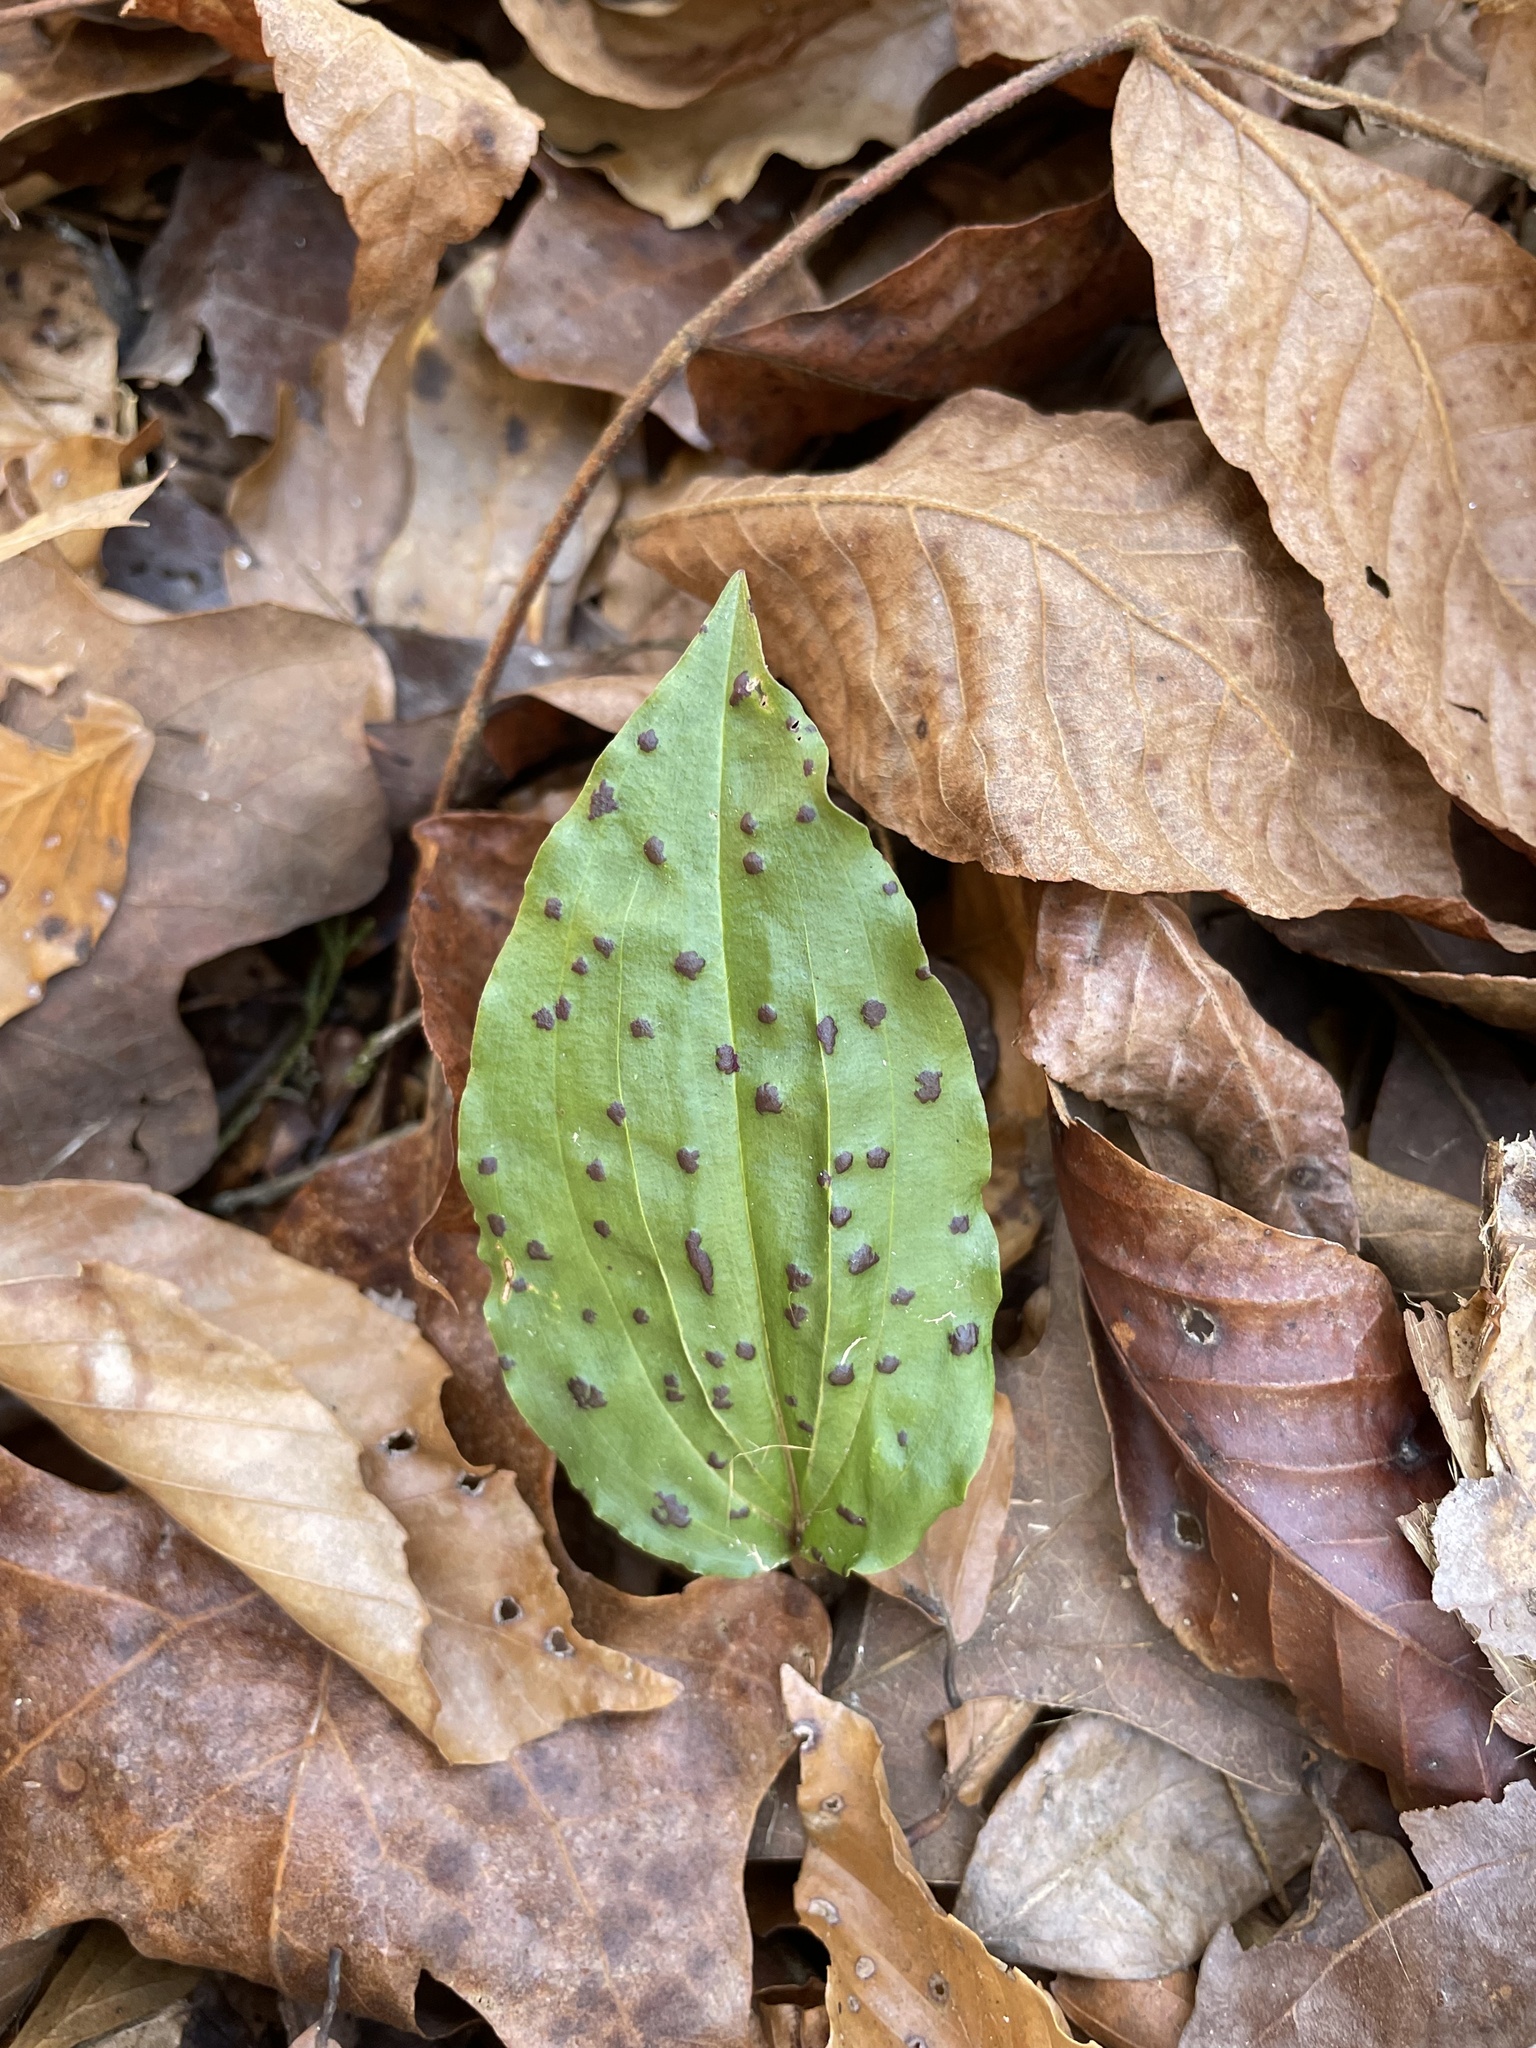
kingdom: Plantae
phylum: Tracheophyta
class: Liliopsida
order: Asparagales
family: Orchidaceae
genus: Tipularia
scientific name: Tipularia discolor
